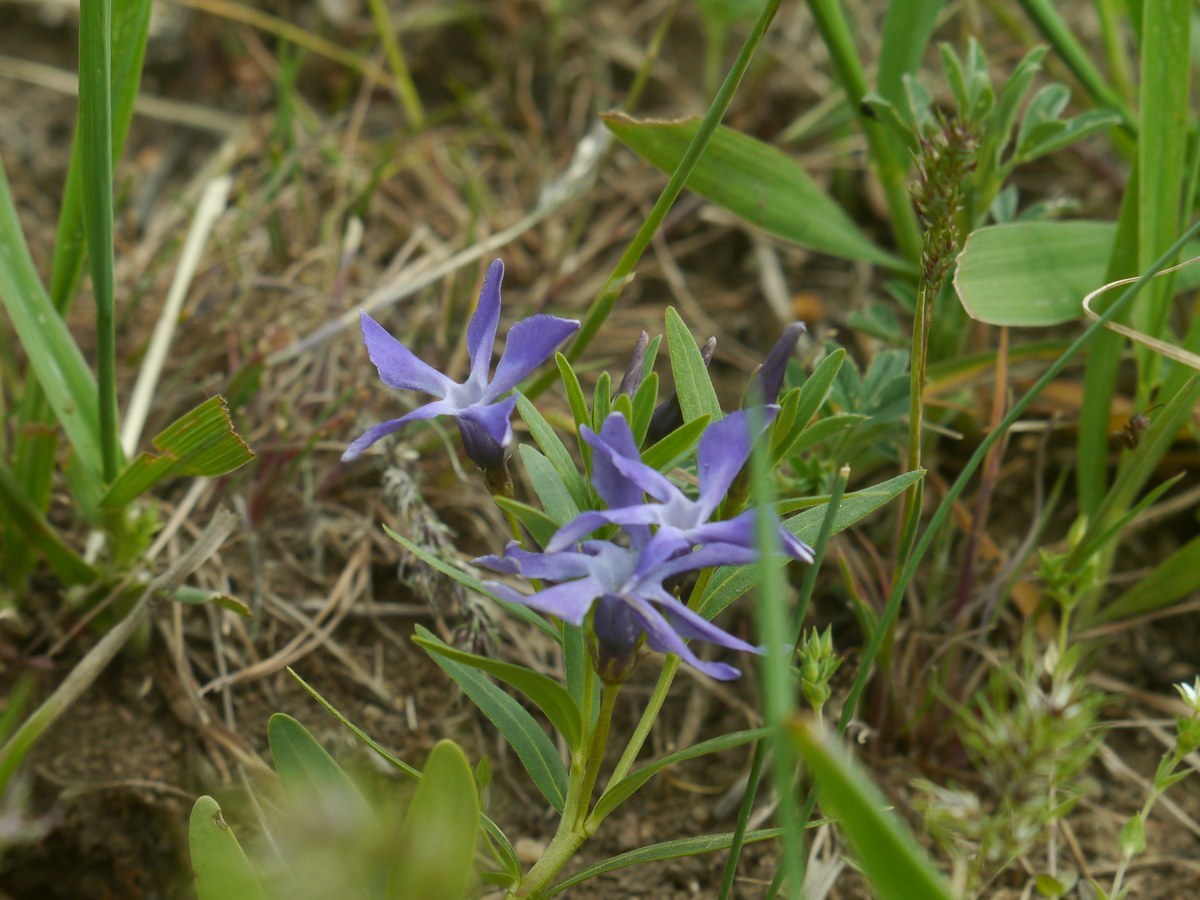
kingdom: Plantae
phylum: Tracheophyta
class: Magnoliopsida
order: Gentianales
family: Apocynaceae
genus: Vinca
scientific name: Vinca herbacea
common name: Herbaceous periwinkle
